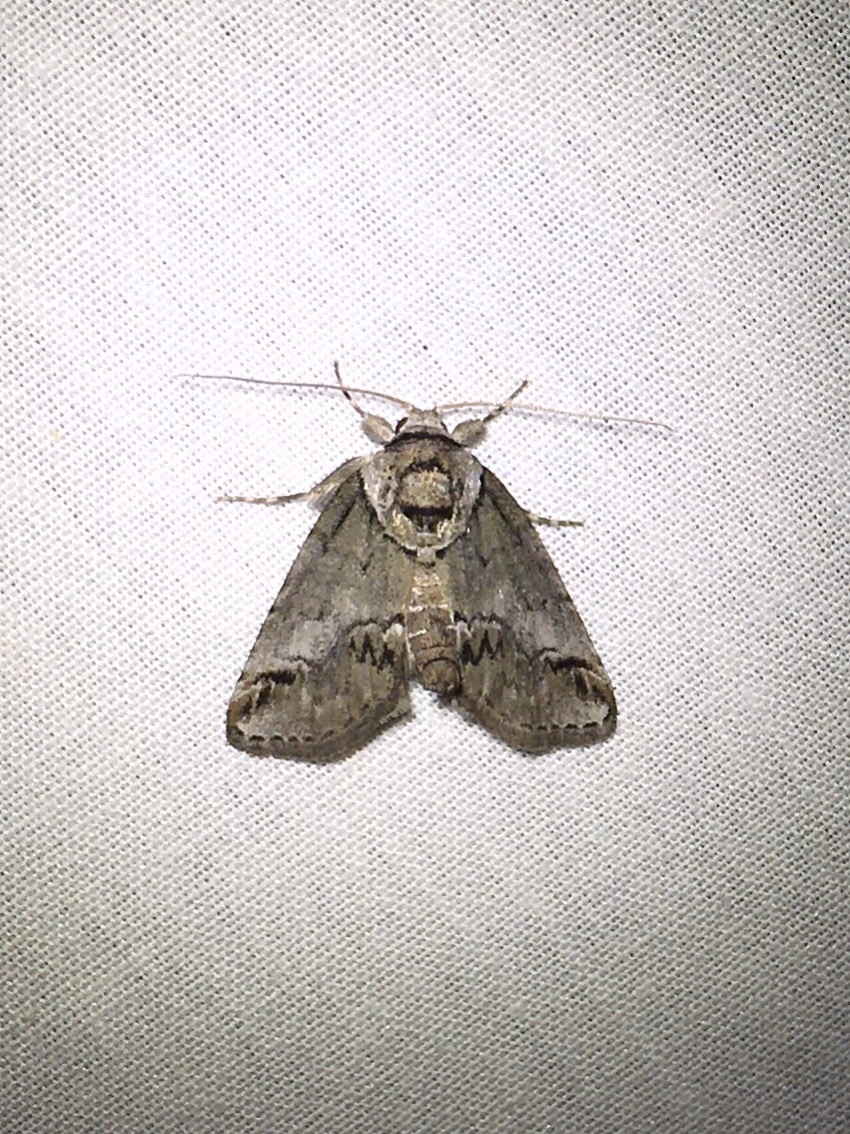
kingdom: Animalia
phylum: Arthropoda
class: Insecta
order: Lepidoptera
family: Nolidae
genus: Baileya
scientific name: Baileya australis
